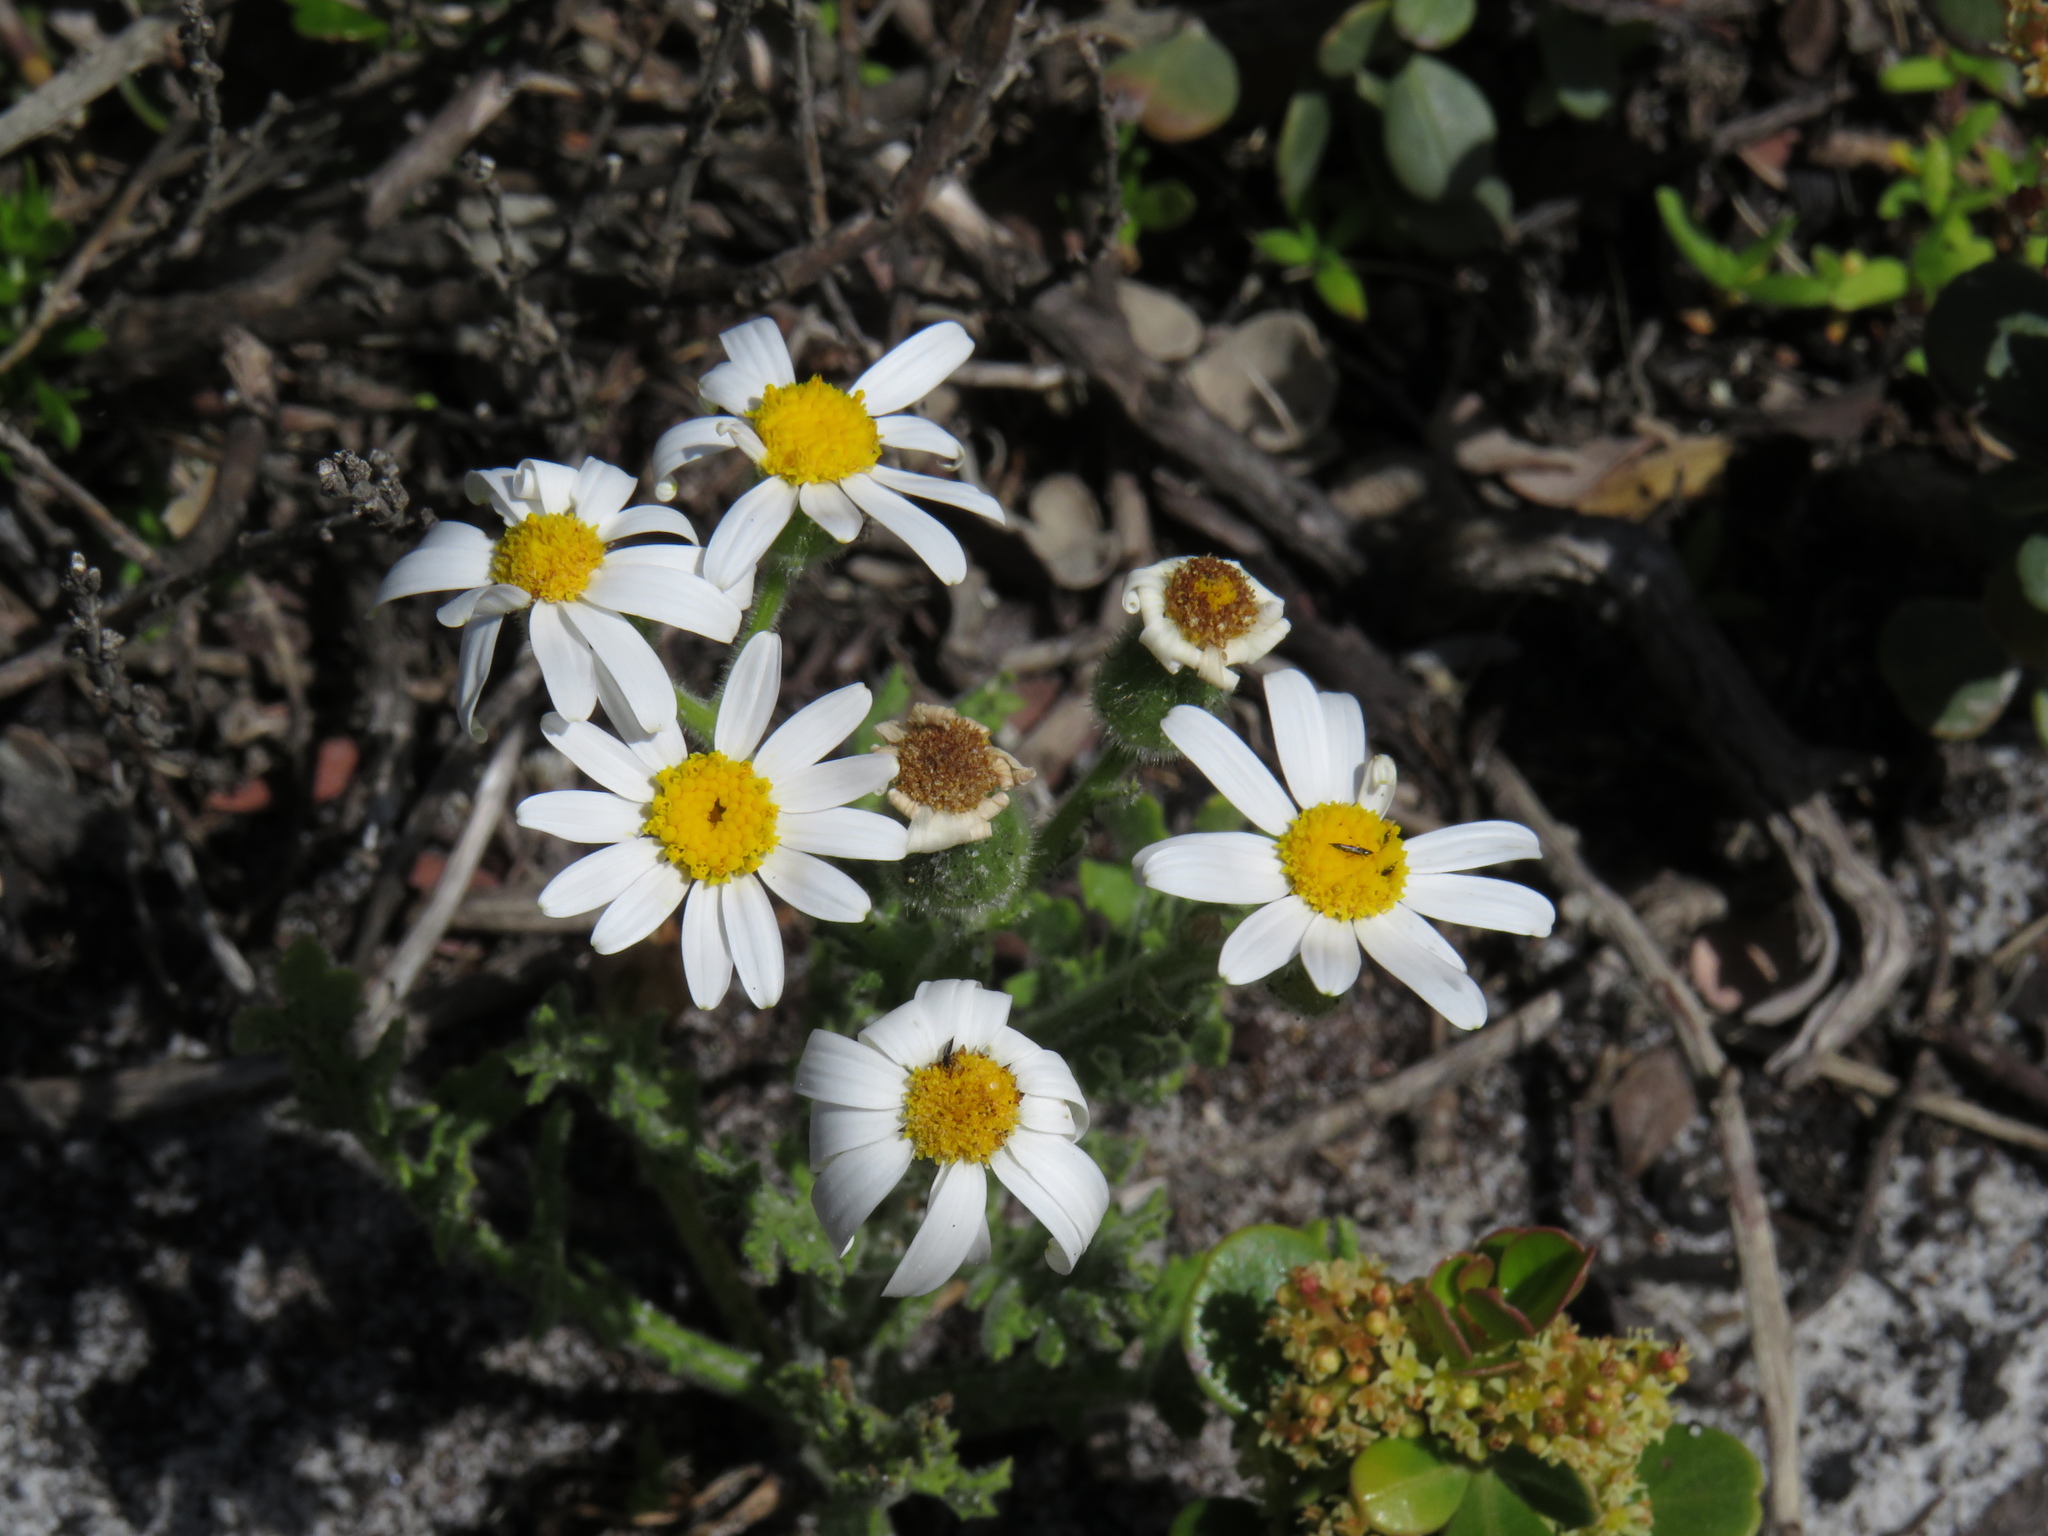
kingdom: Plantae
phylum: Tracheophyta
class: Magnoliopsida
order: Asterales
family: Asteraceae
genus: Senecio
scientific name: Senecio arenarius
